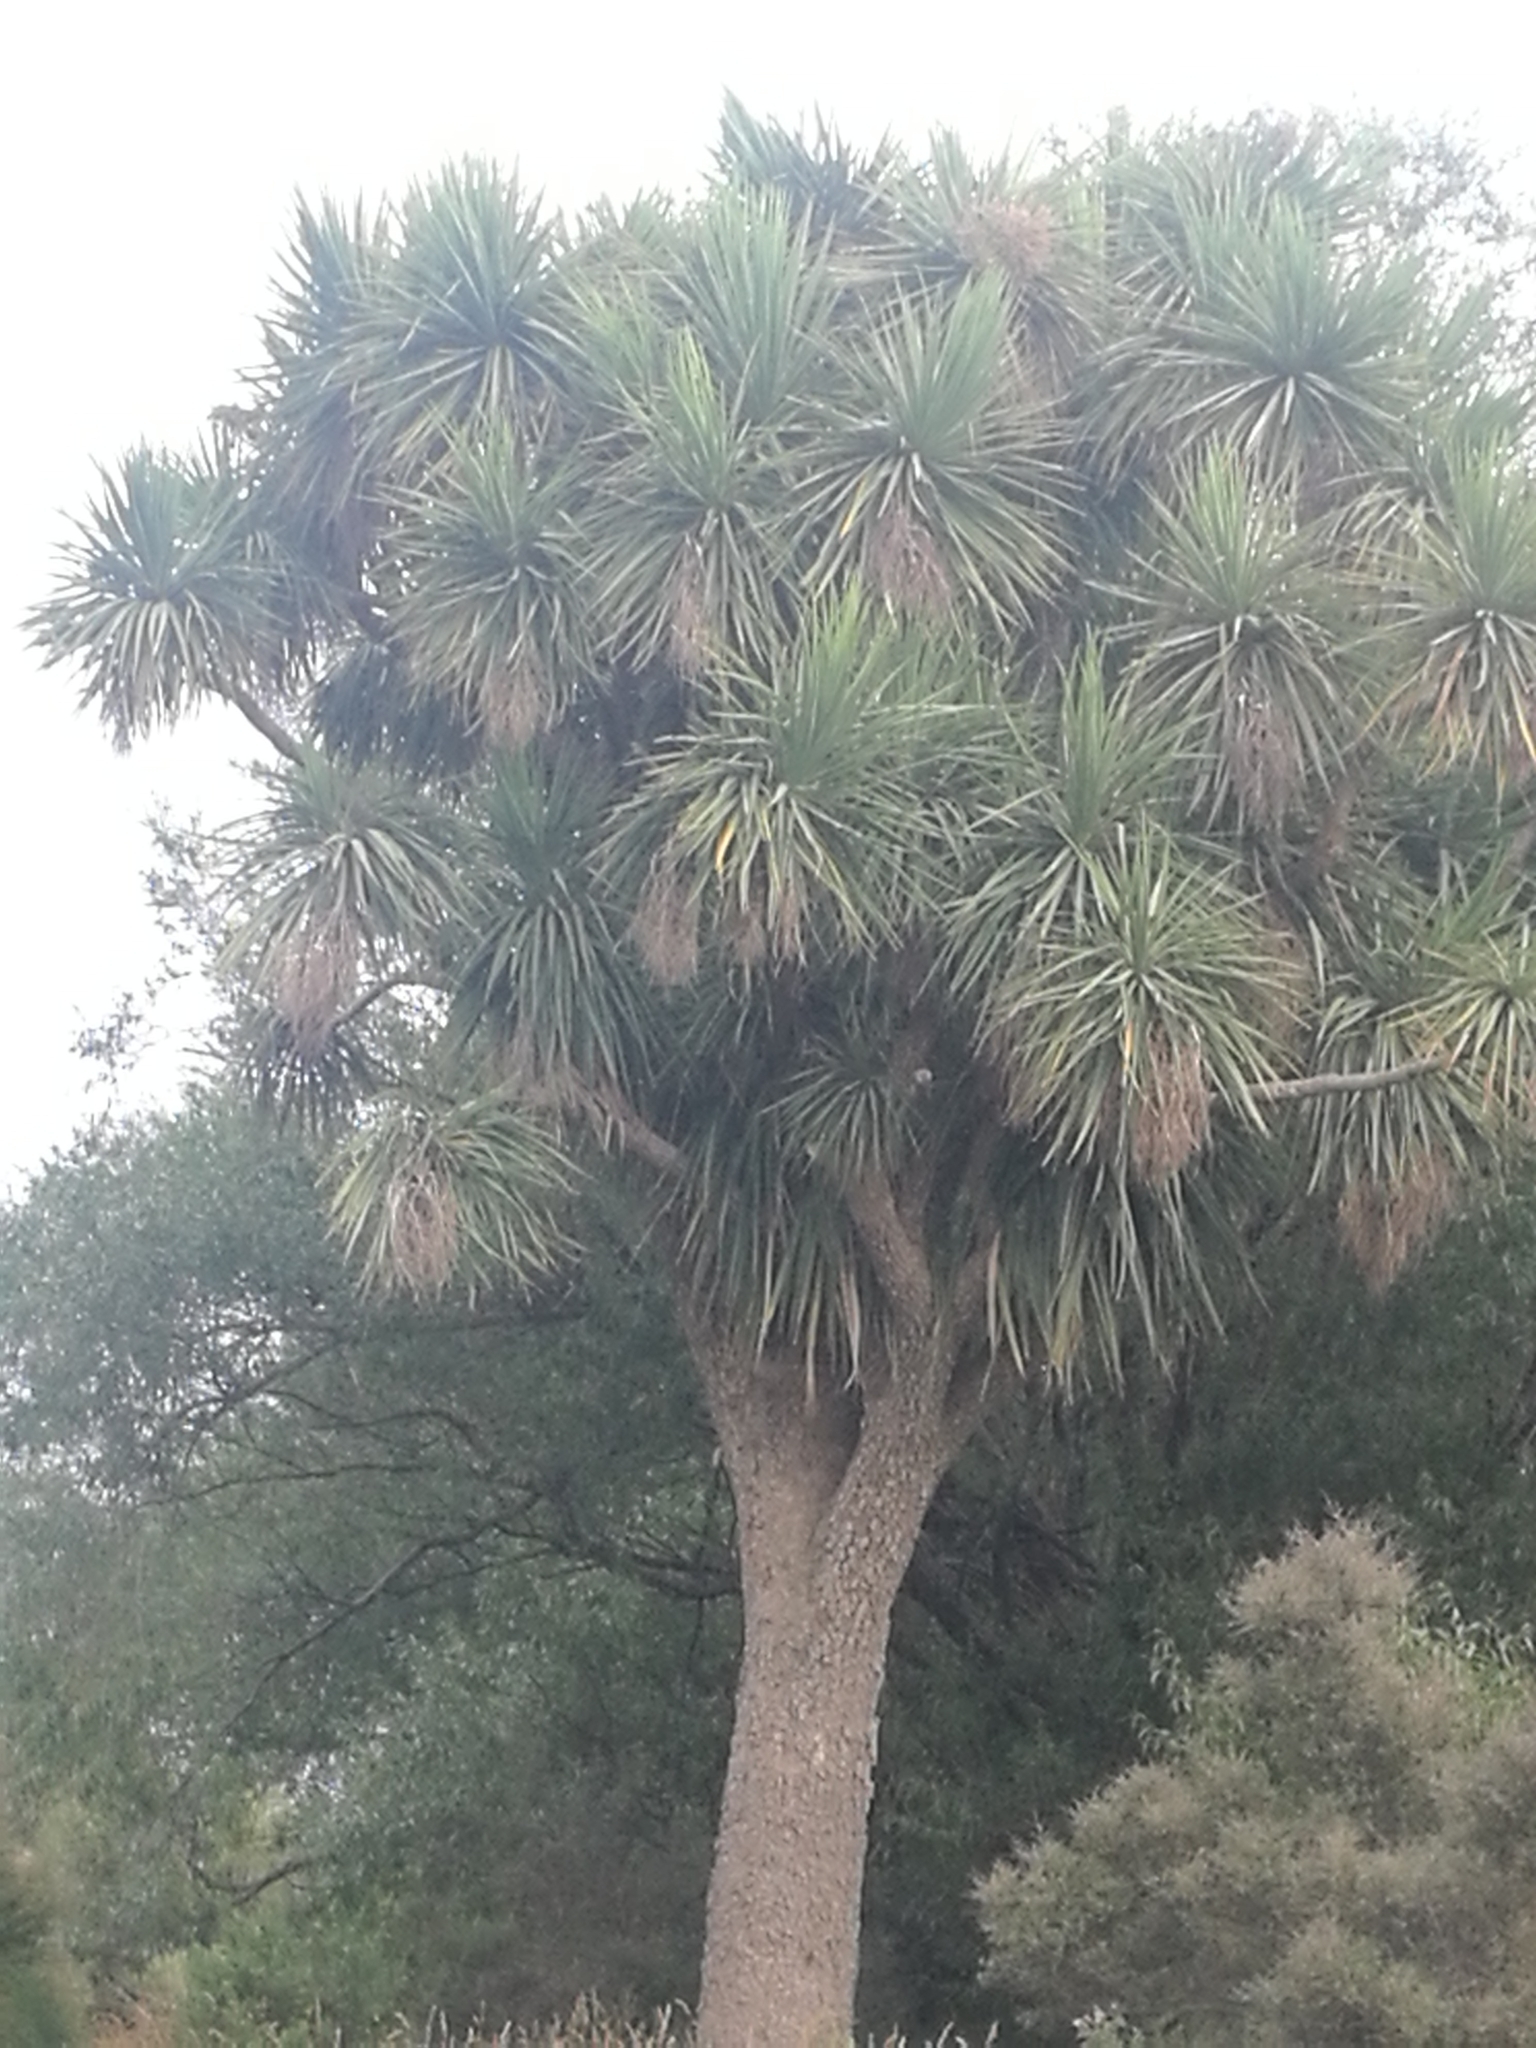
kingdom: Plantae
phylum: Tracheophyta
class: Liliopsida
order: Asparagales
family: Asparagaceae
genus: Cordyline
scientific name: Cordyline australis
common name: Cabbage-palm
